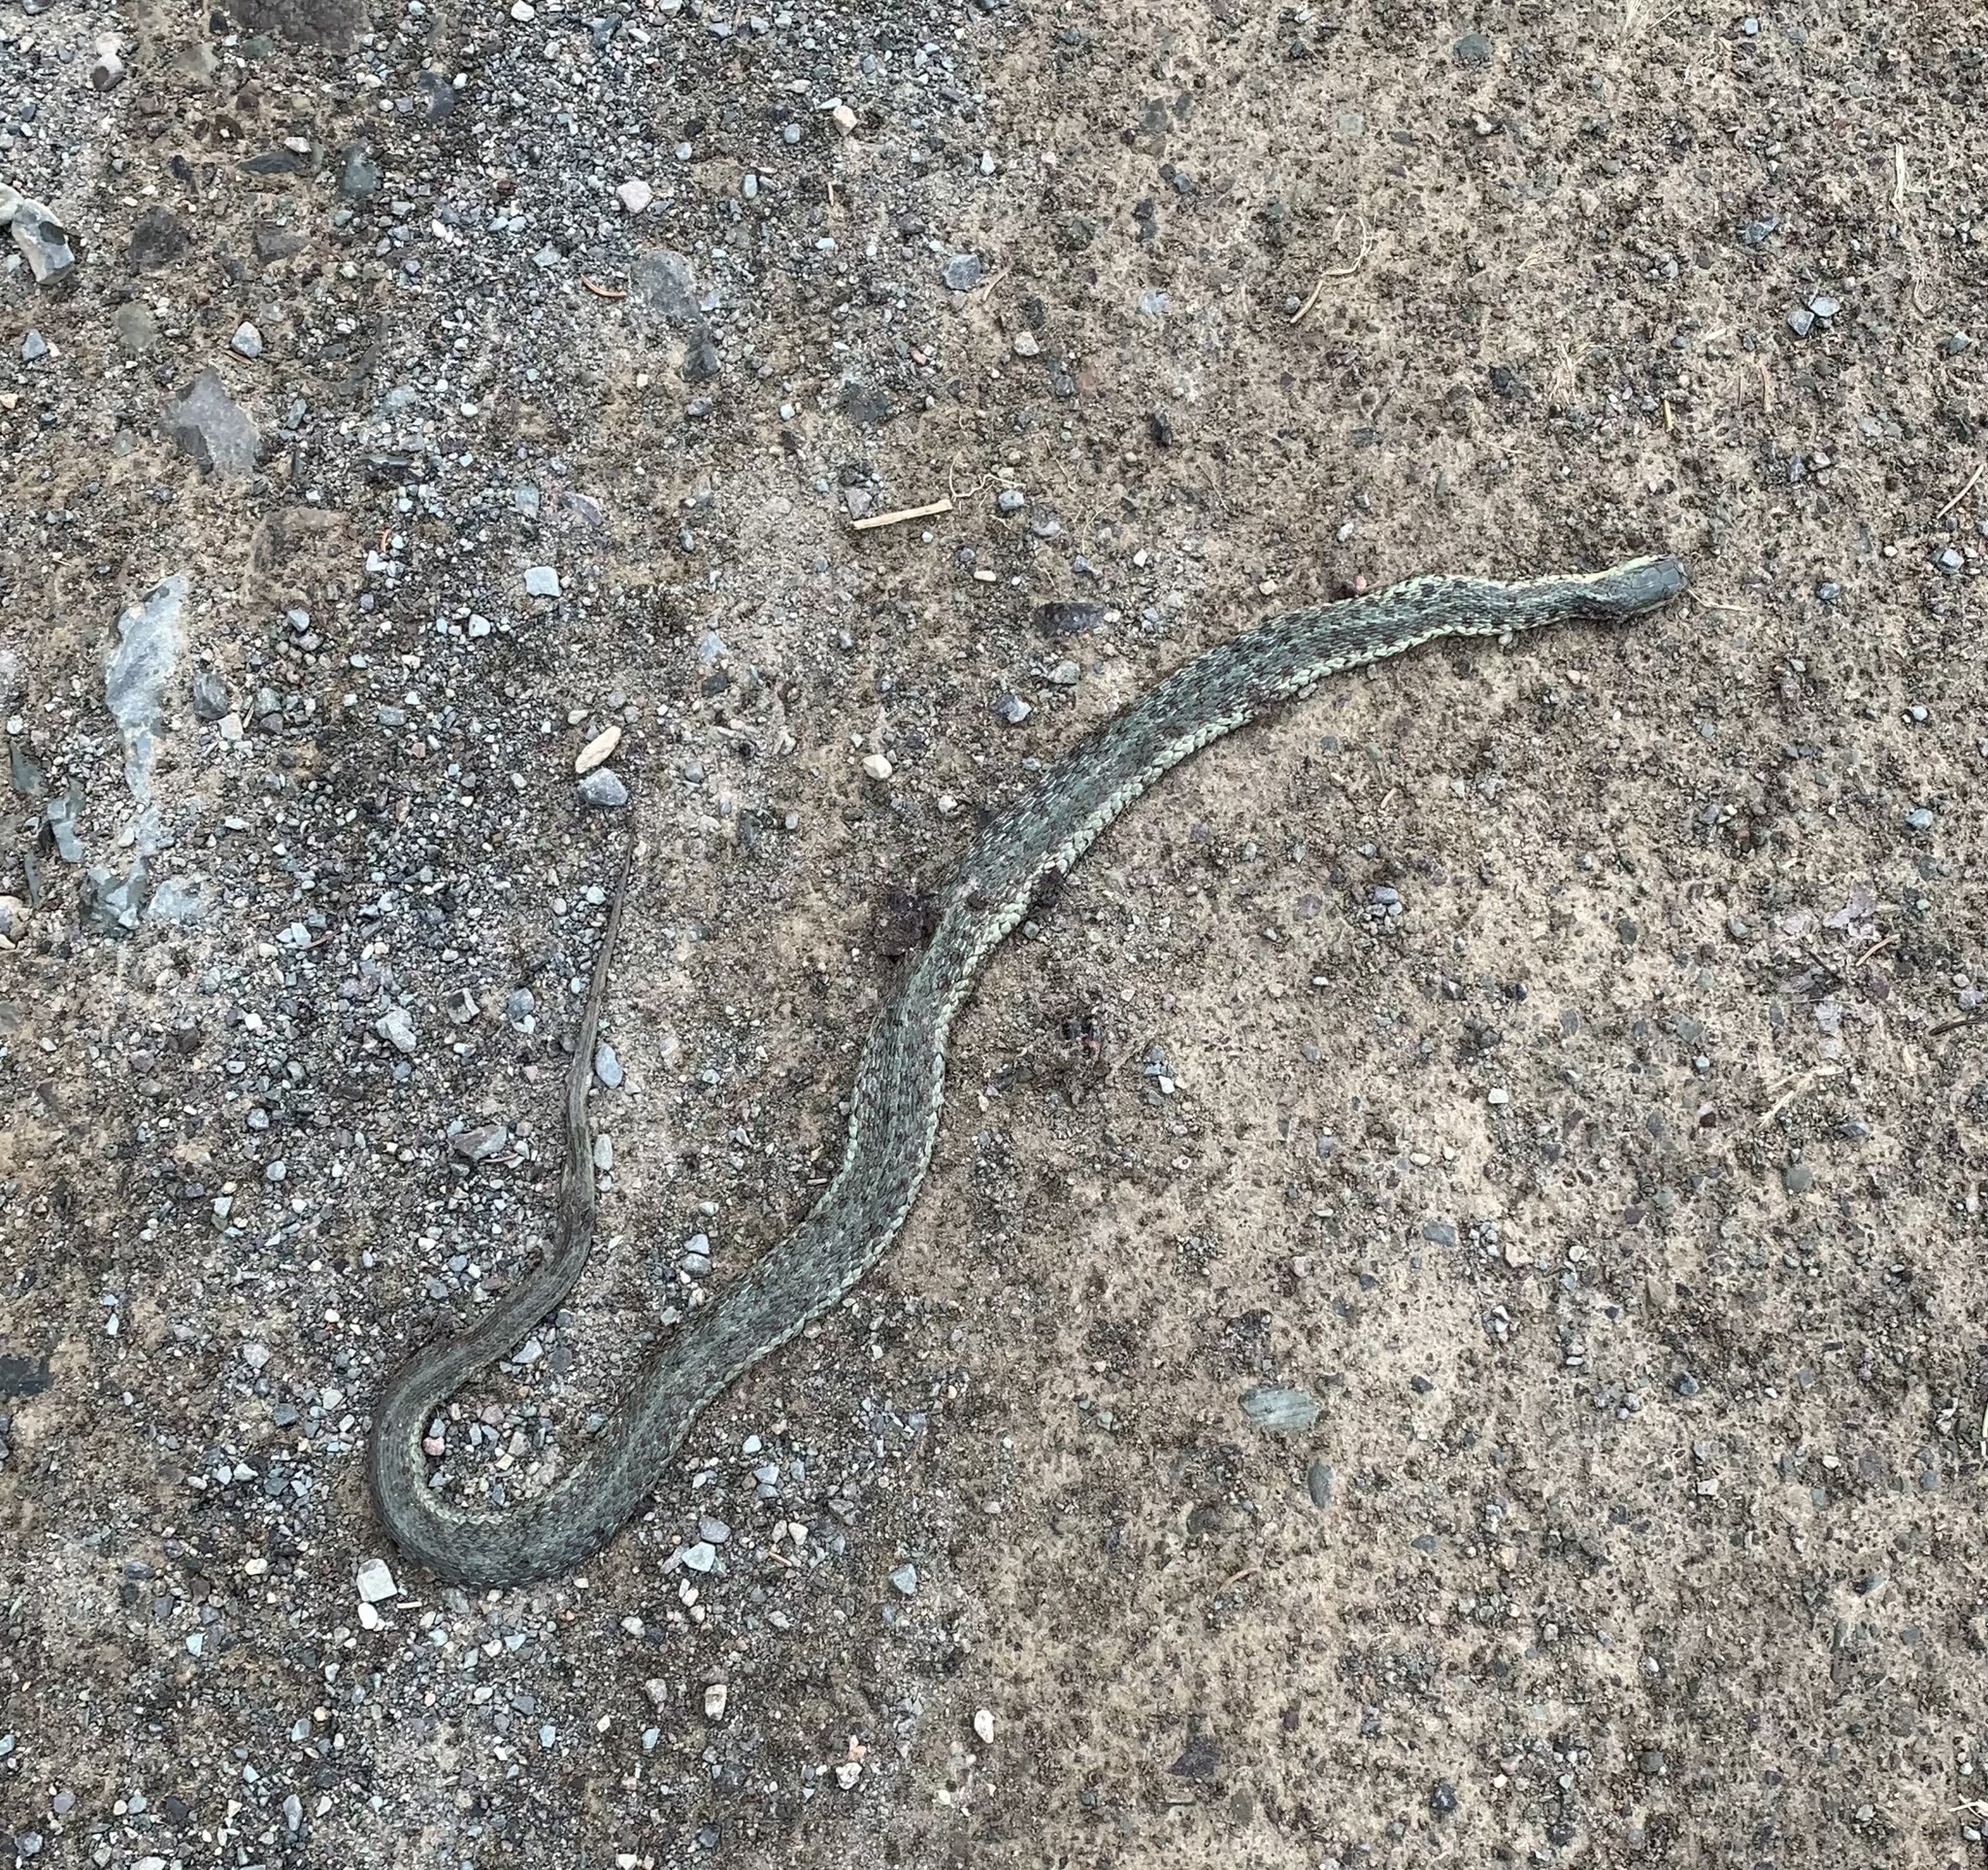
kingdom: Animalia
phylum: Chordata
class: Squamata
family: Colubridae
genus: Thamnophis
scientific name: Thamnophis sirtalis
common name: Common garter snake
